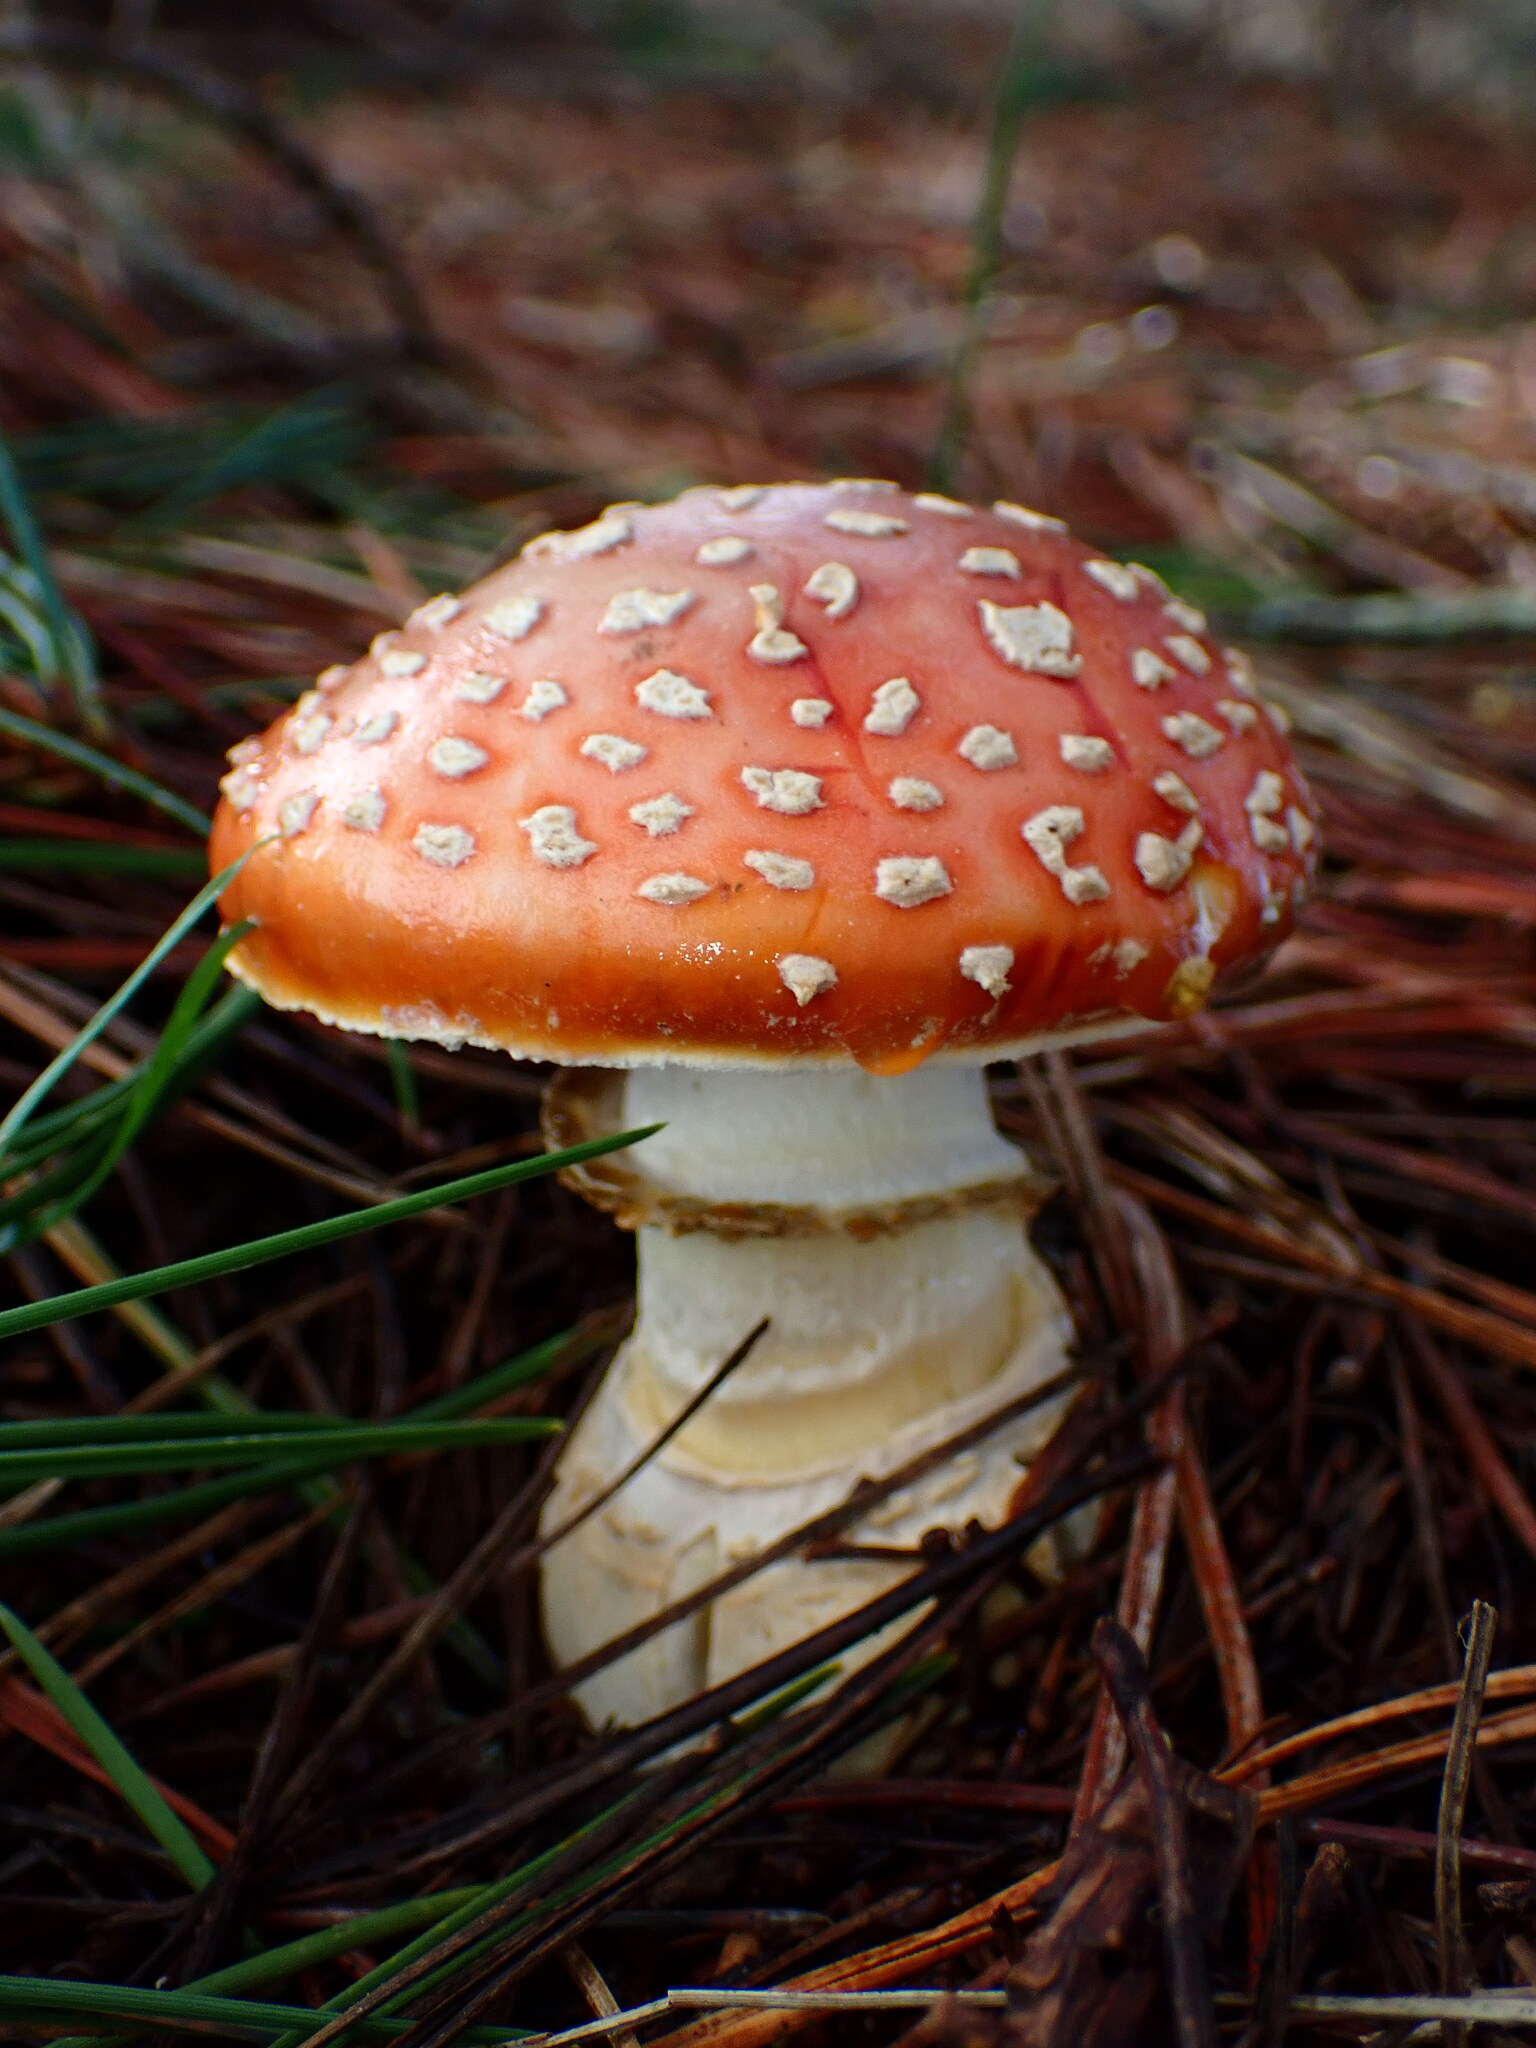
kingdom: Fungi
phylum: Basidiomycota
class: Agaricomycetes
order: Agaricales
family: Amanitaceae
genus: Amanita
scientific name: Amanita muscaria
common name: Fly agaric
